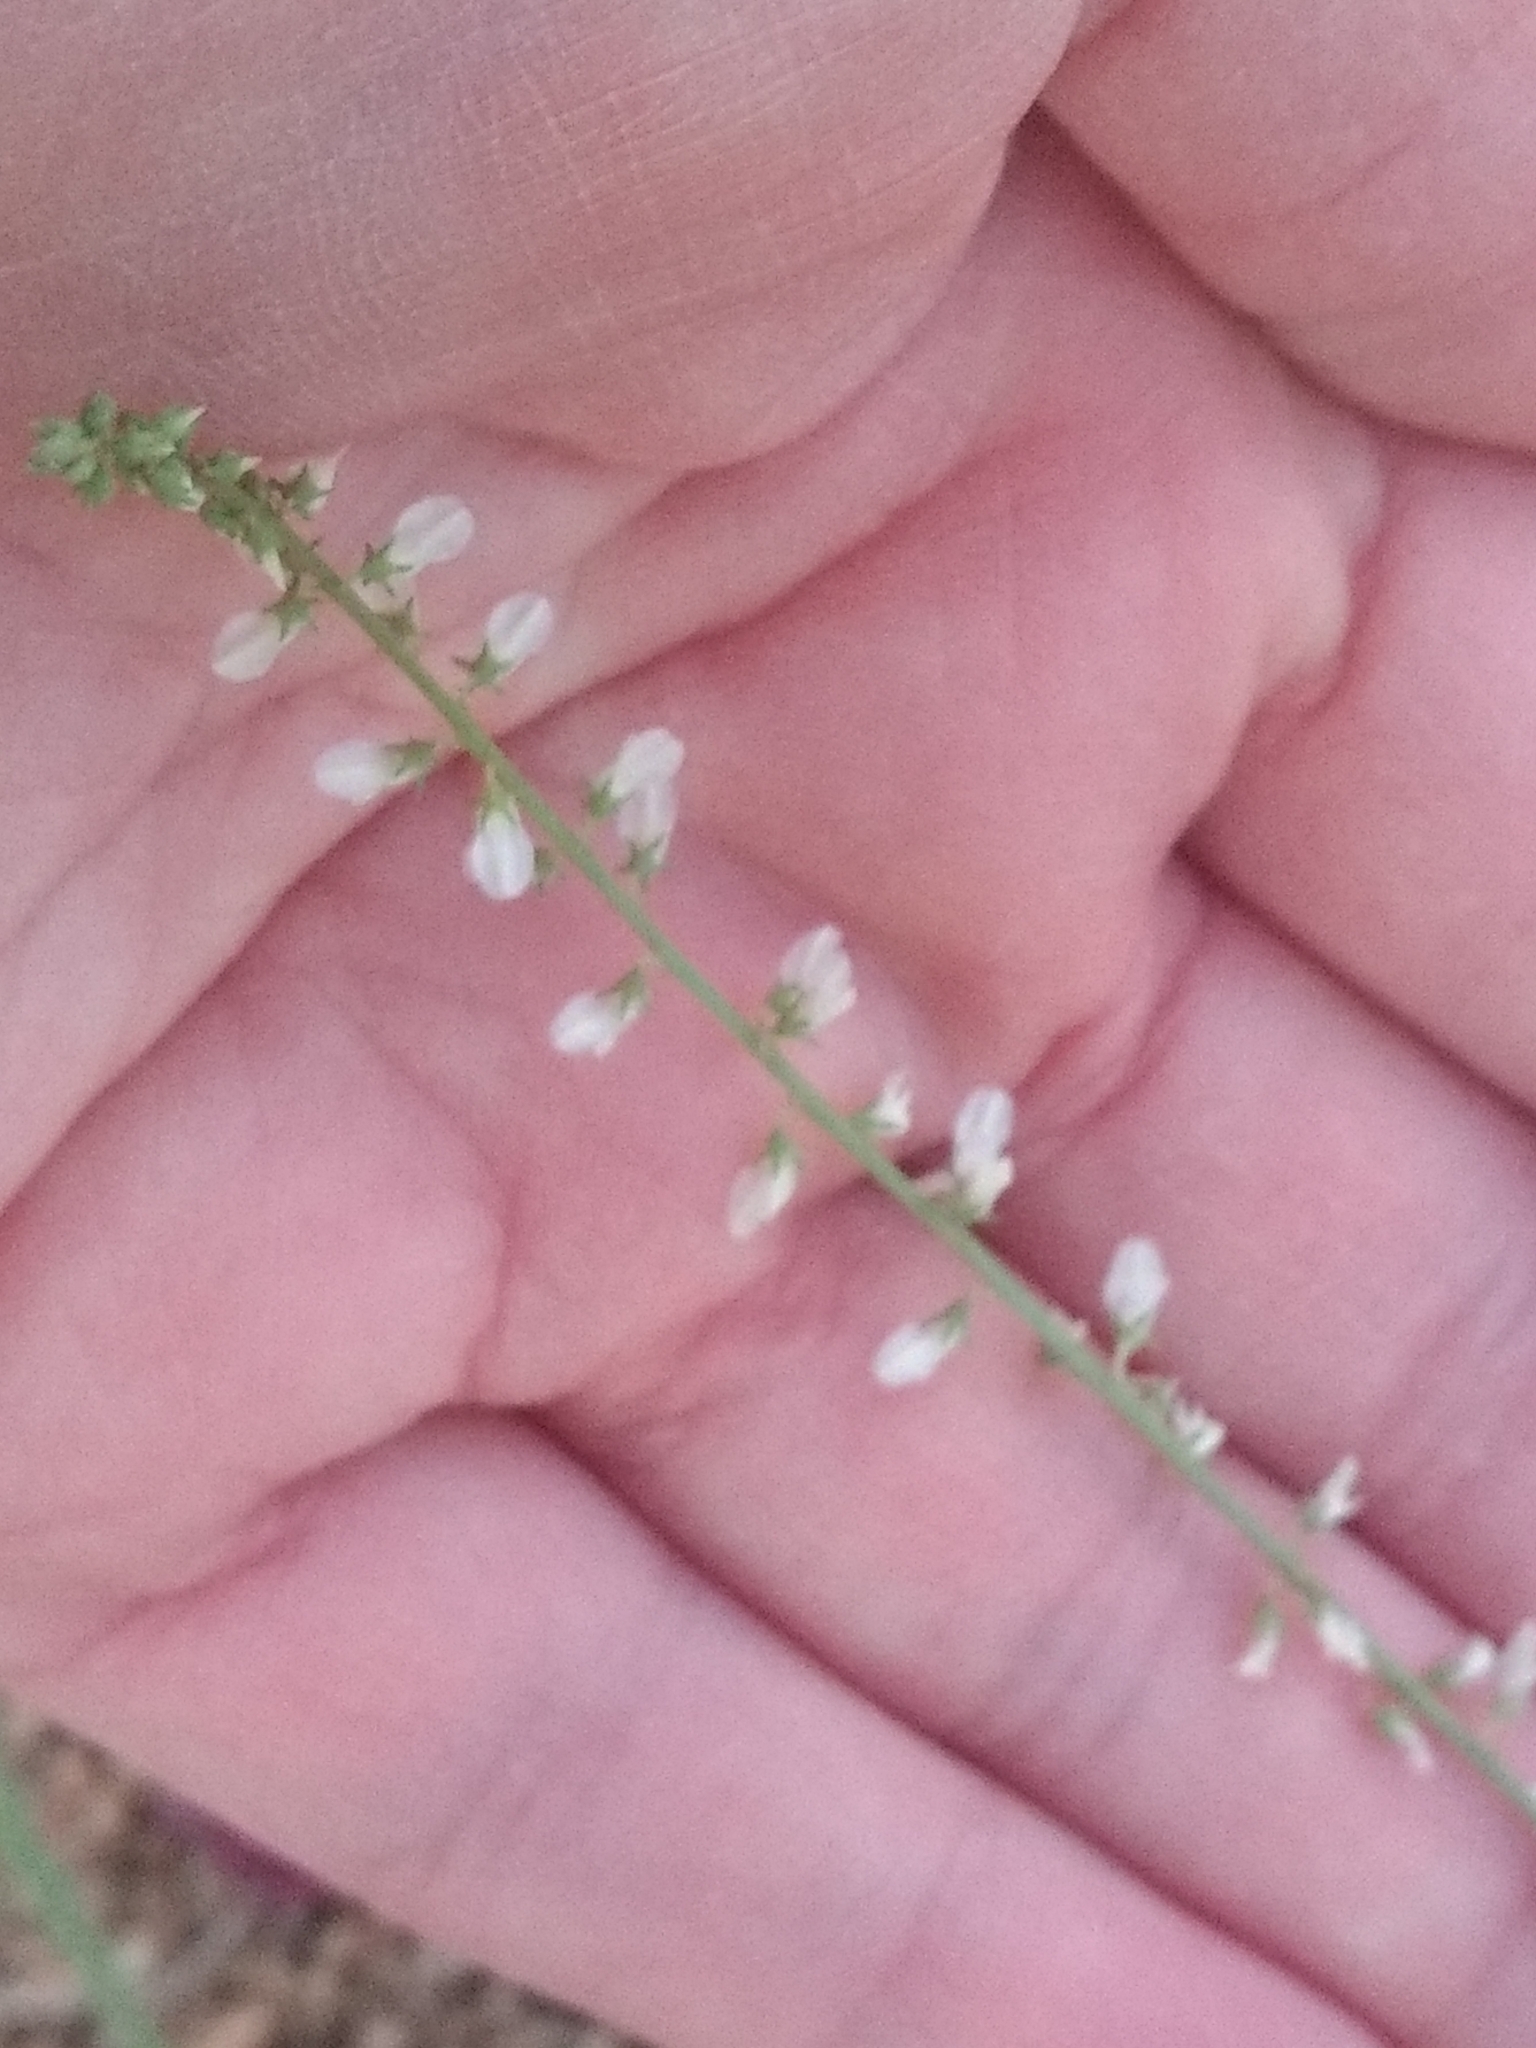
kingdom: Plantae
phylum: Tracheophyta
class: Magnoliopsida
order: Fabales
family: Fabaceae
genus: Melilotus
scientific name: Melilotus albus
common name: White melilot
